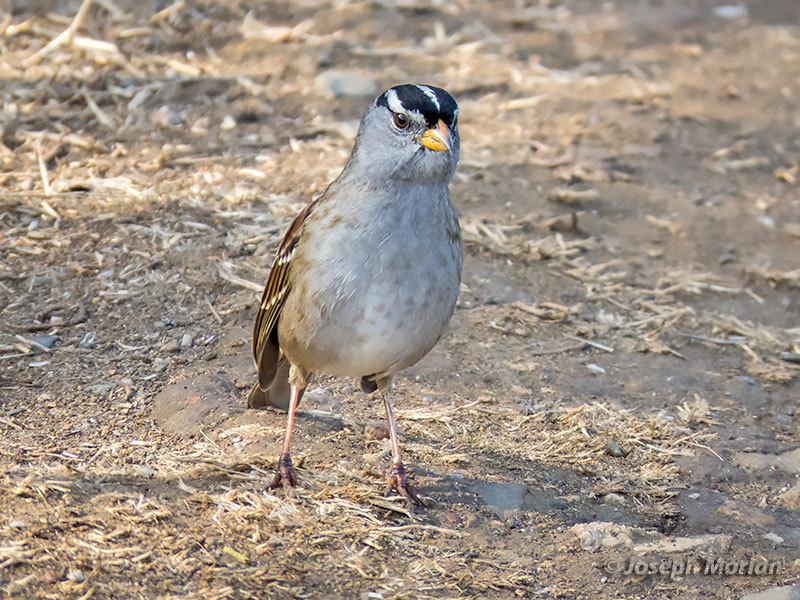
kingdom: Animalia
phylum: Chordata
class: Aves
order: Passeriformes
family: Passerellidae
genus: Zonotrichia
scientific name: Zonotrichia leucophrys
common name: White-crowned sparrow
